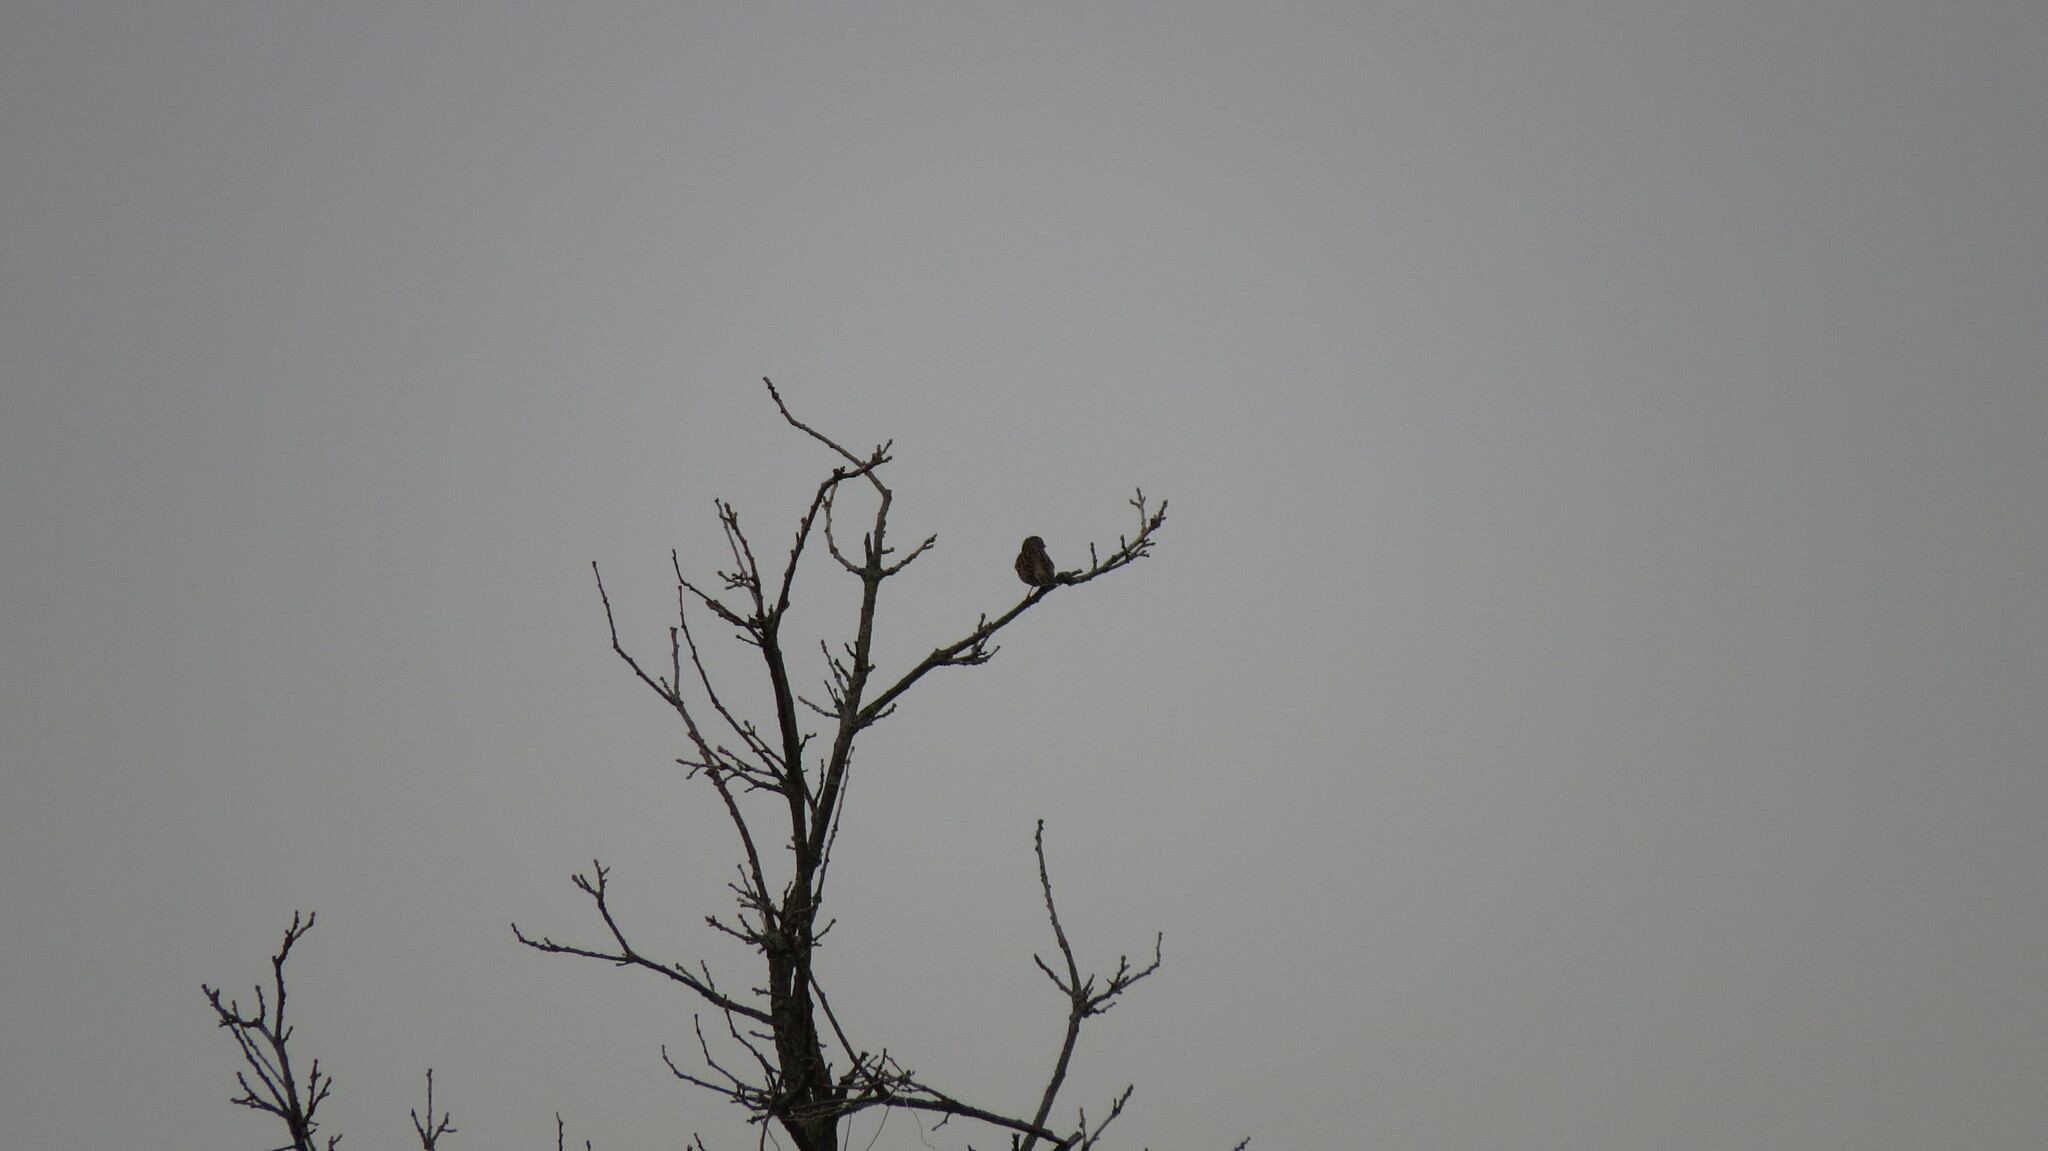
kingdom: Animalia
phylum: Chordata
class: Aves
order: Passeriformes
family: Passerellidae
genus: Melospiza
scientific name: Melospiza melodia
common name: Song sparrow
